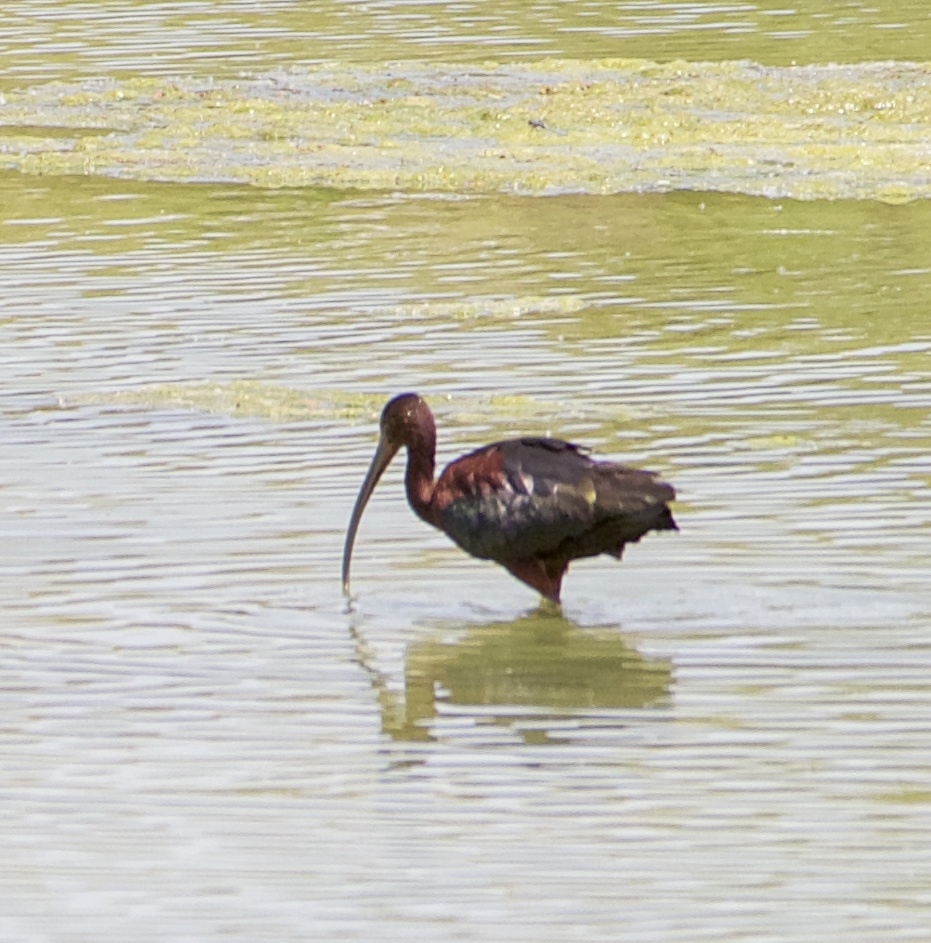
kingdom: Animalia
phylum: Chordata
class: Aves
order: Pelecaniformes
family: Threskiornithidae
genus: Plegadis
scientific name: Plegadis chihi
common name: White-faced ibis
